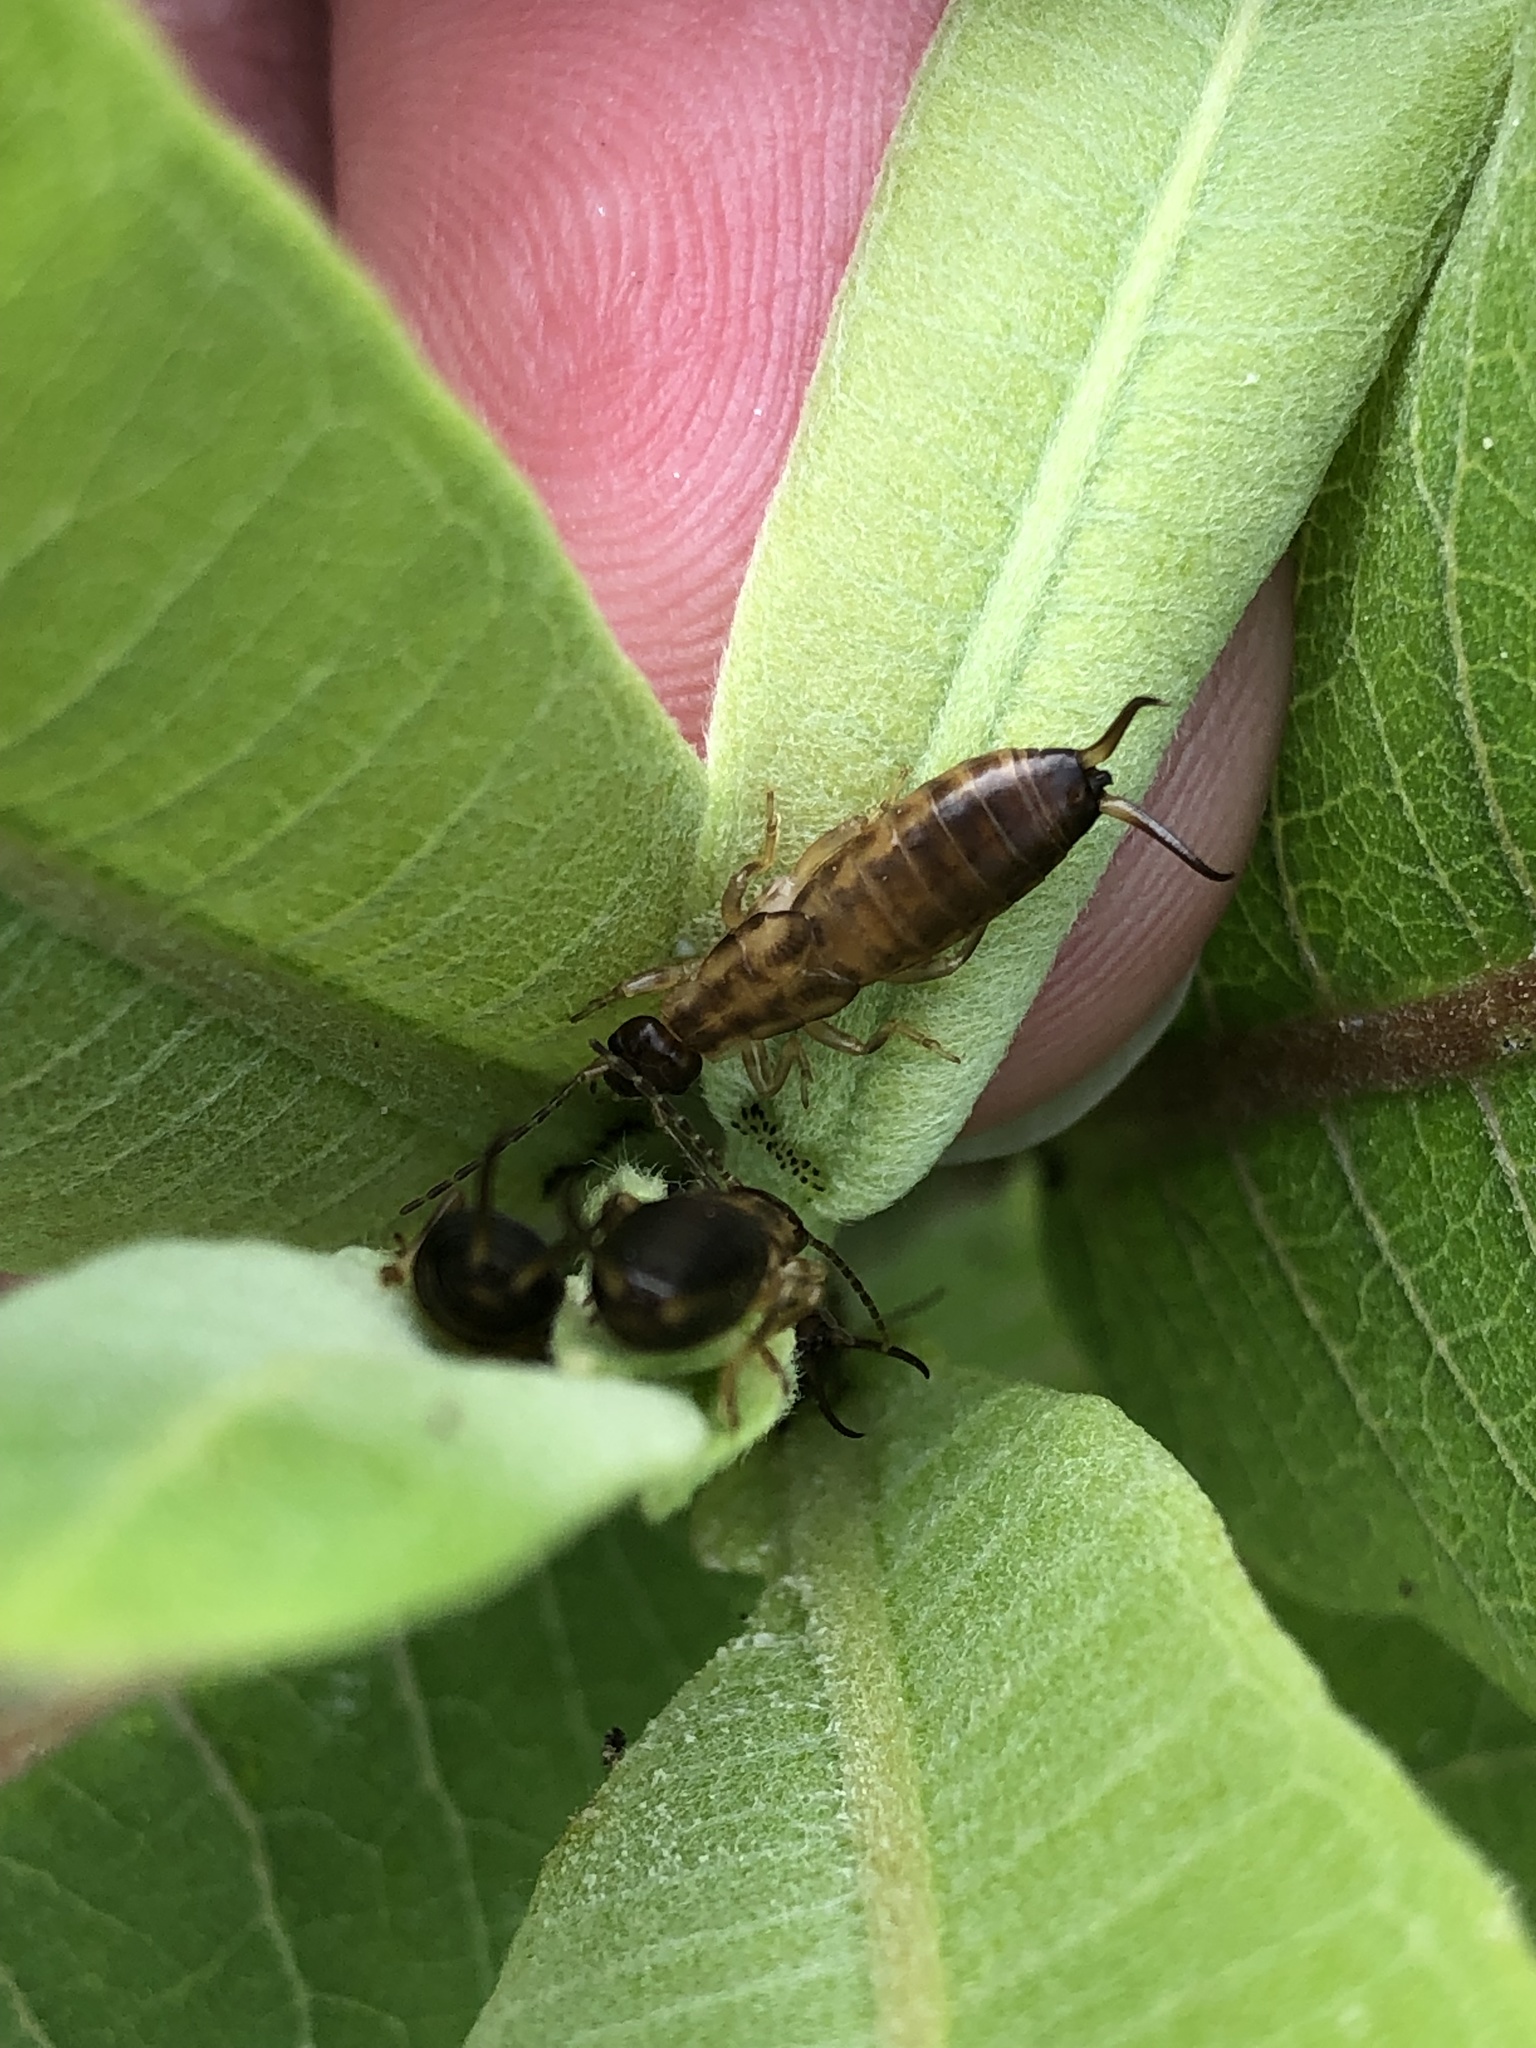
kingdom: Animalia
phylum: Arthropoda
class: Insecta
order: Dermaptera
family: Forficulidae
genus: Forficula
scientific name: Forficula
